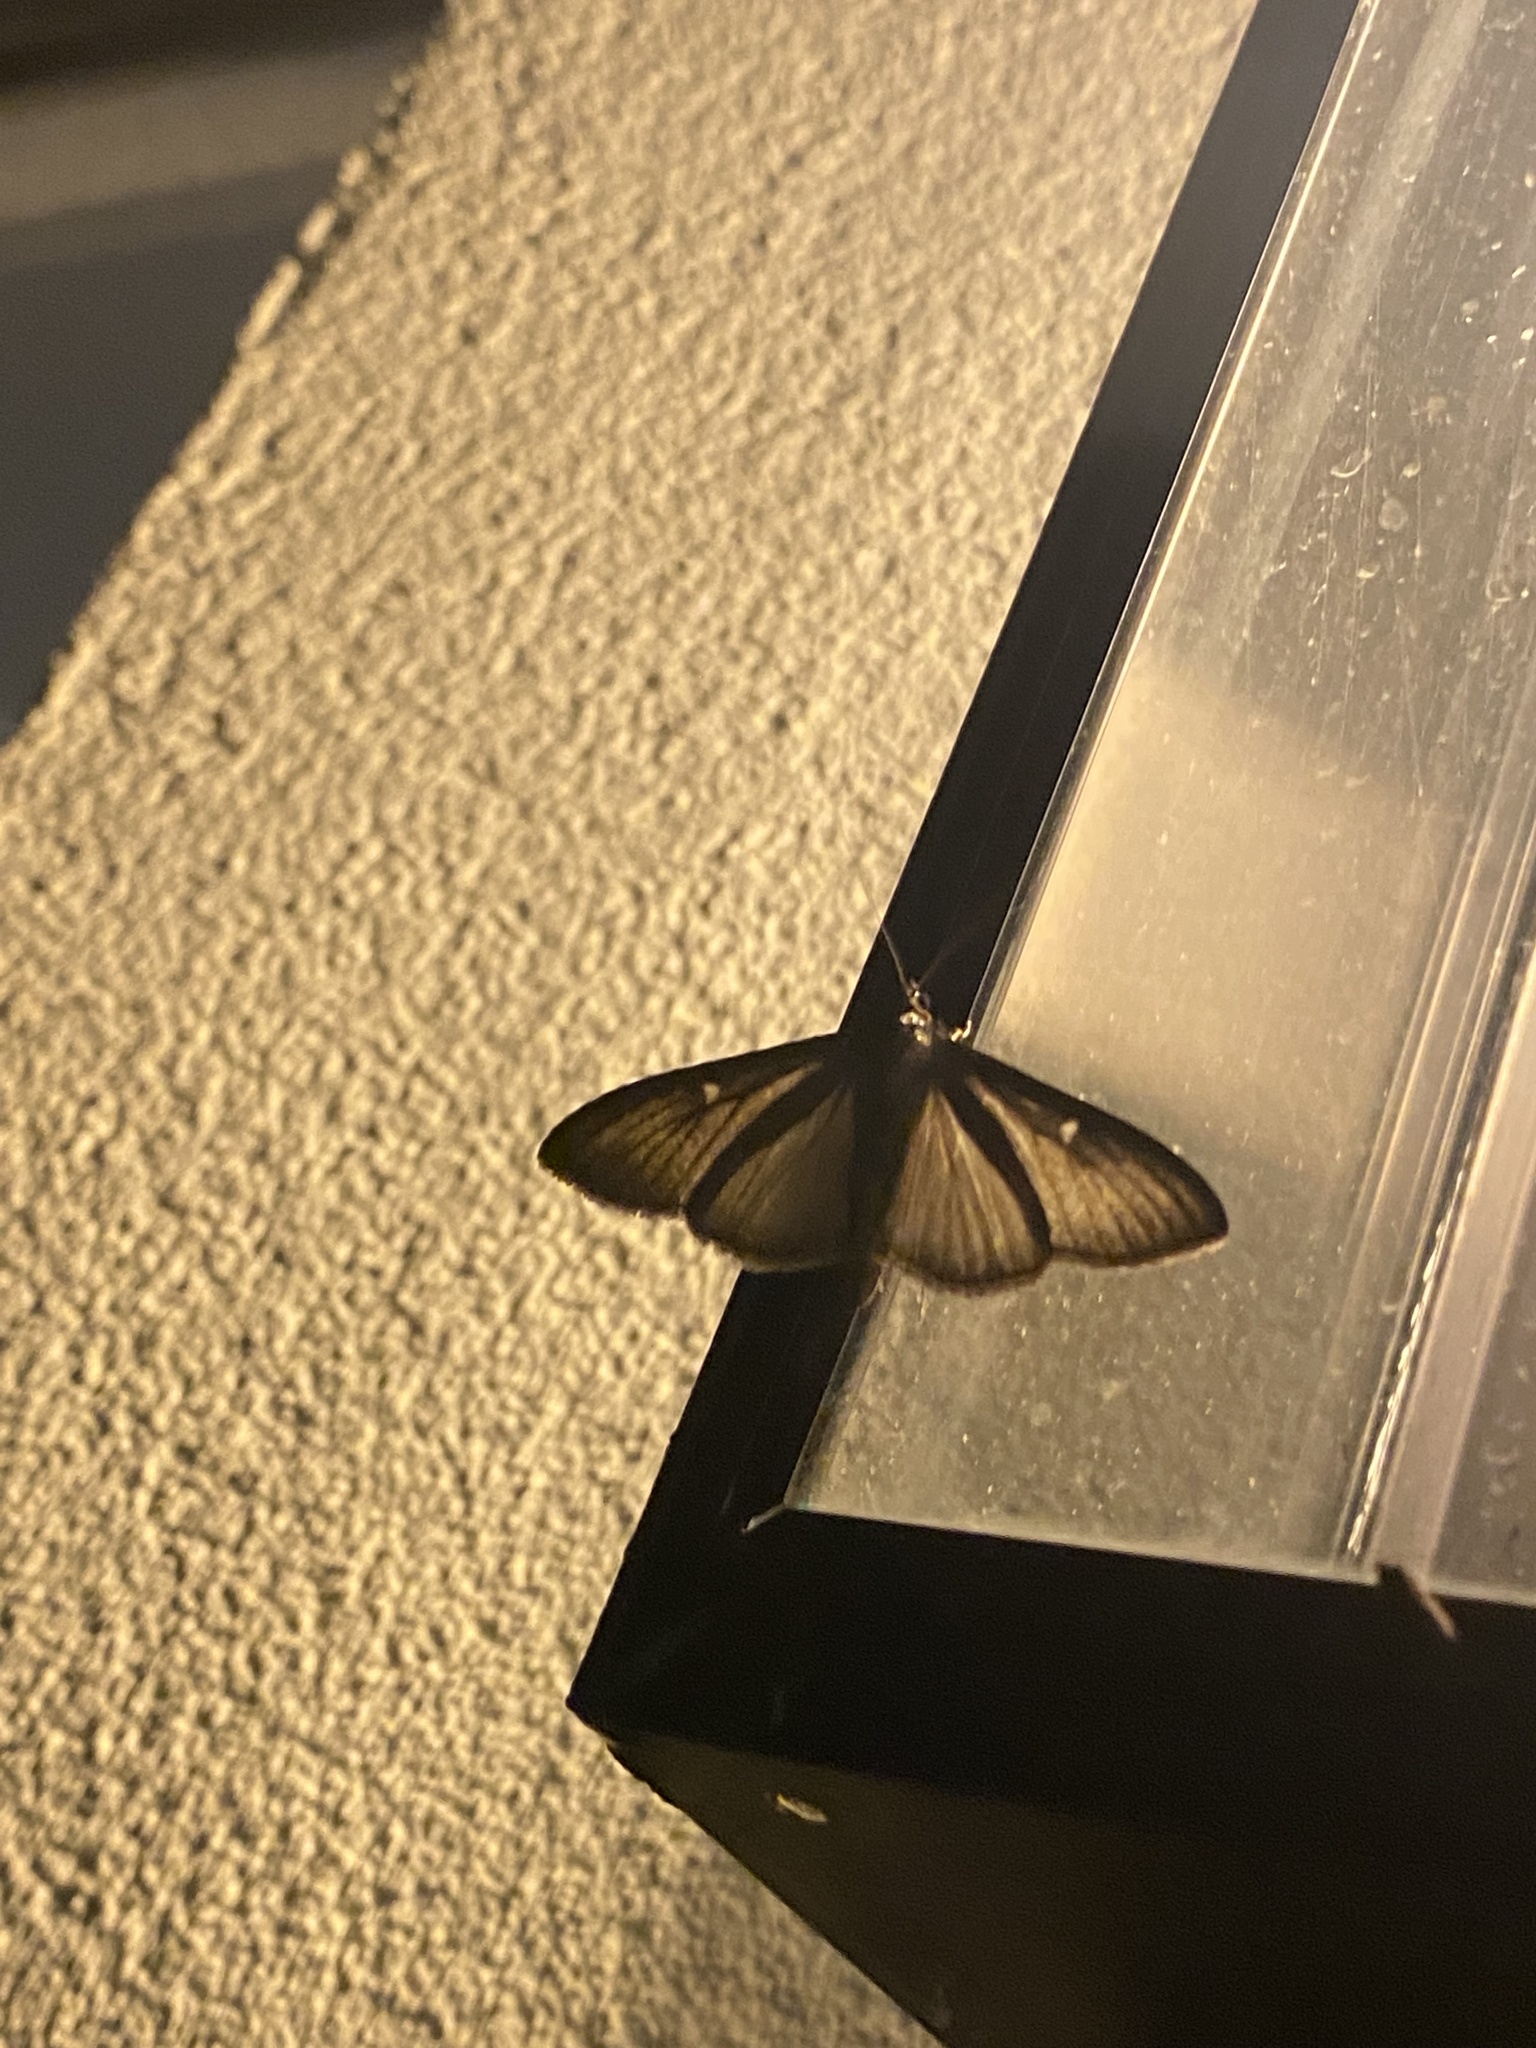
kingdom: Animalia
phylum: Arthropoda
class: Insecta
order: Lepidoptera
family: Crambidae
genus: Cydalima
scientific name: Cydalima perspectalis
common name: Box tree moth
